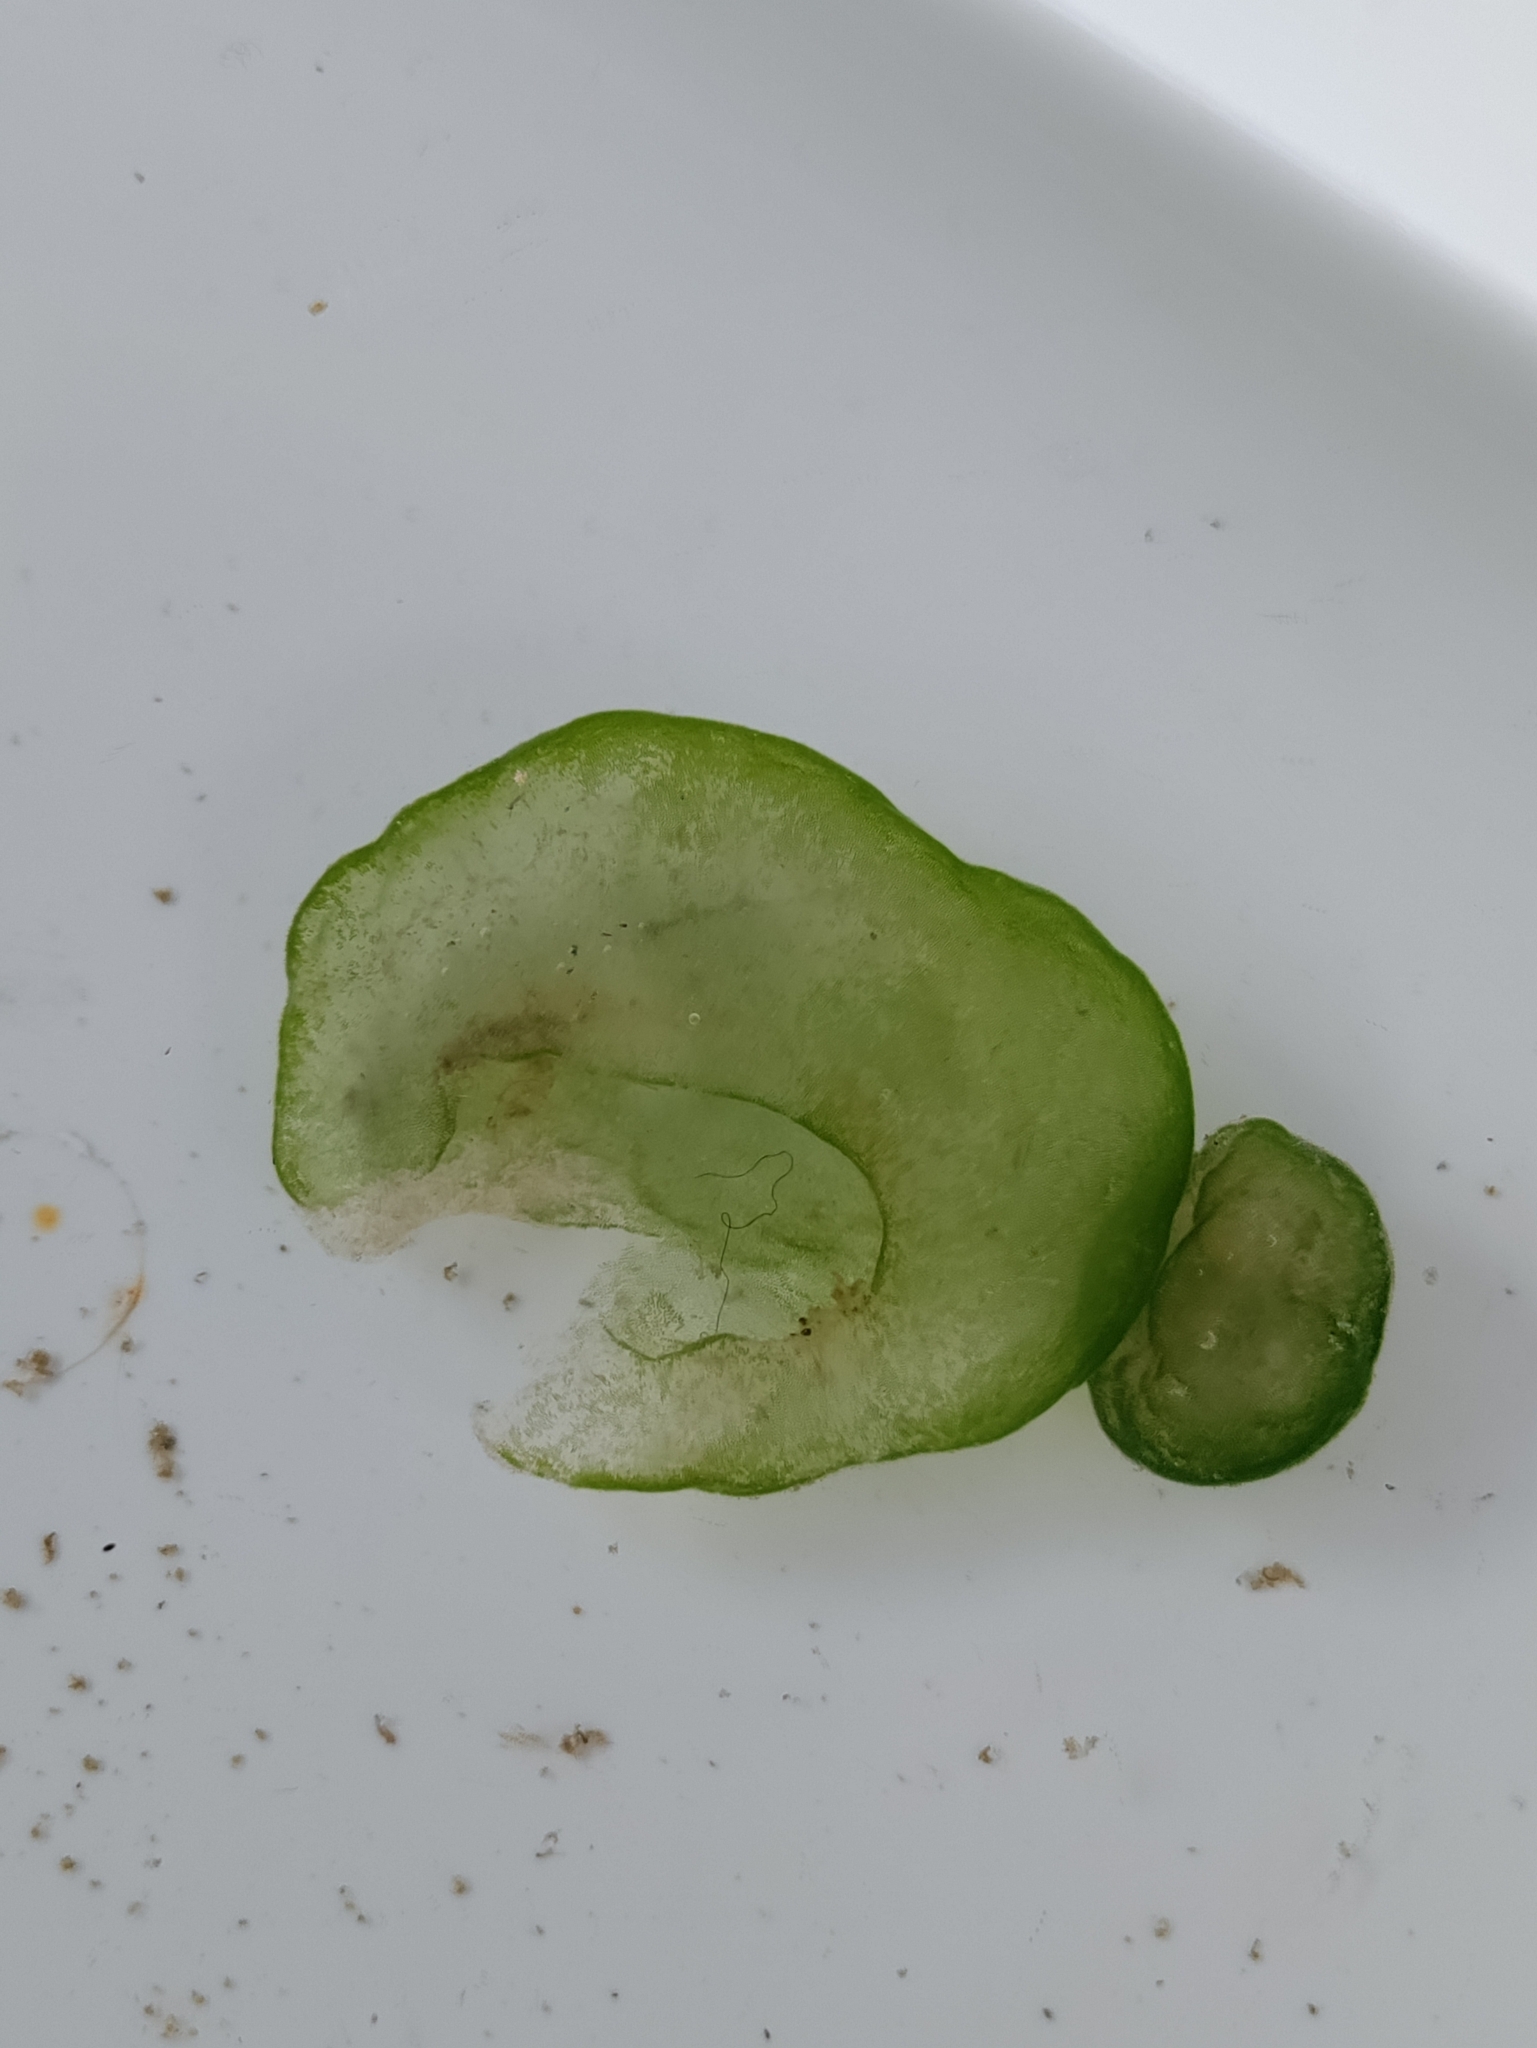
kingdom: Chromista
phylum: Ciliophora
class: Oligohymenophorea
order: Peritrichida
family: Ophrydiidae
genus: Ophrydium
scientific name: Ophrydium
